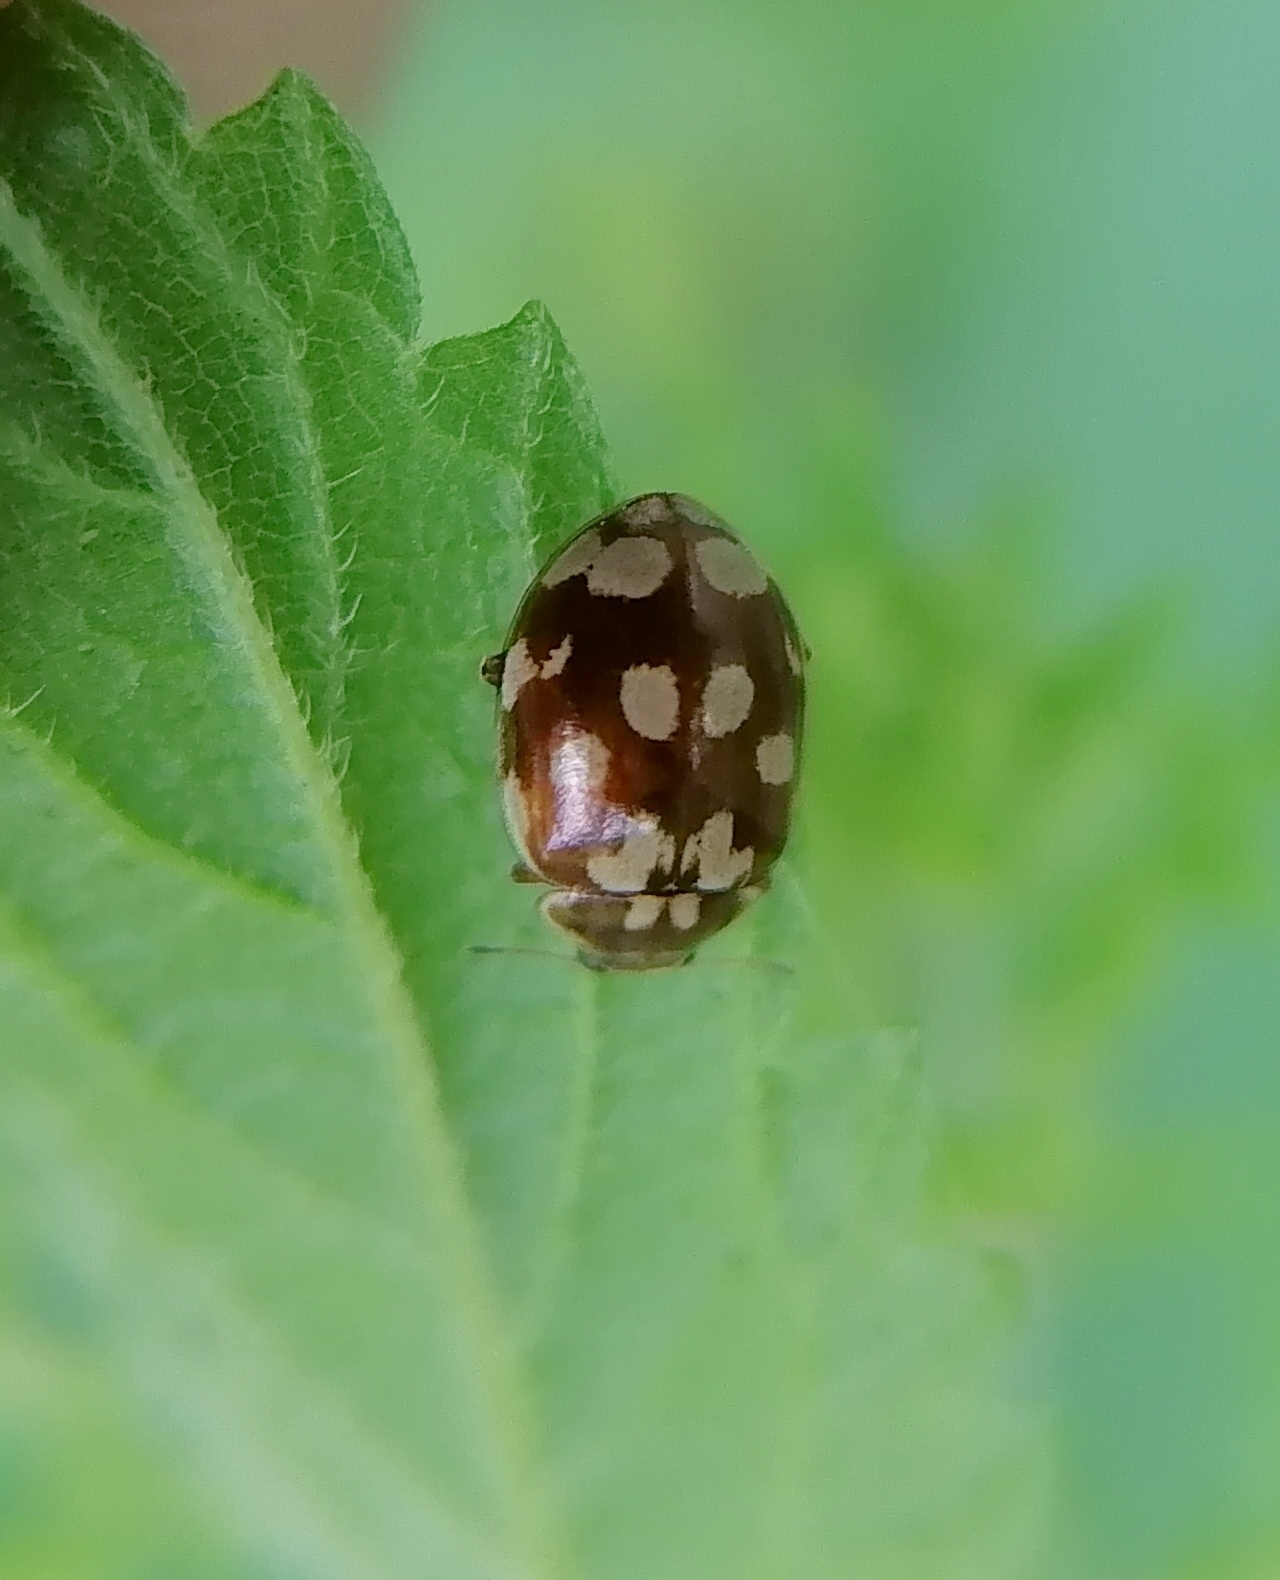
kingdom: Animalia
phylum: Arthropoda
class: Insecta
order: Coleoptera
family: Coccinellidae
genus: Myrrha
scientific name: Myrrha octodecimguttata
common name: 18-spot ladybird
